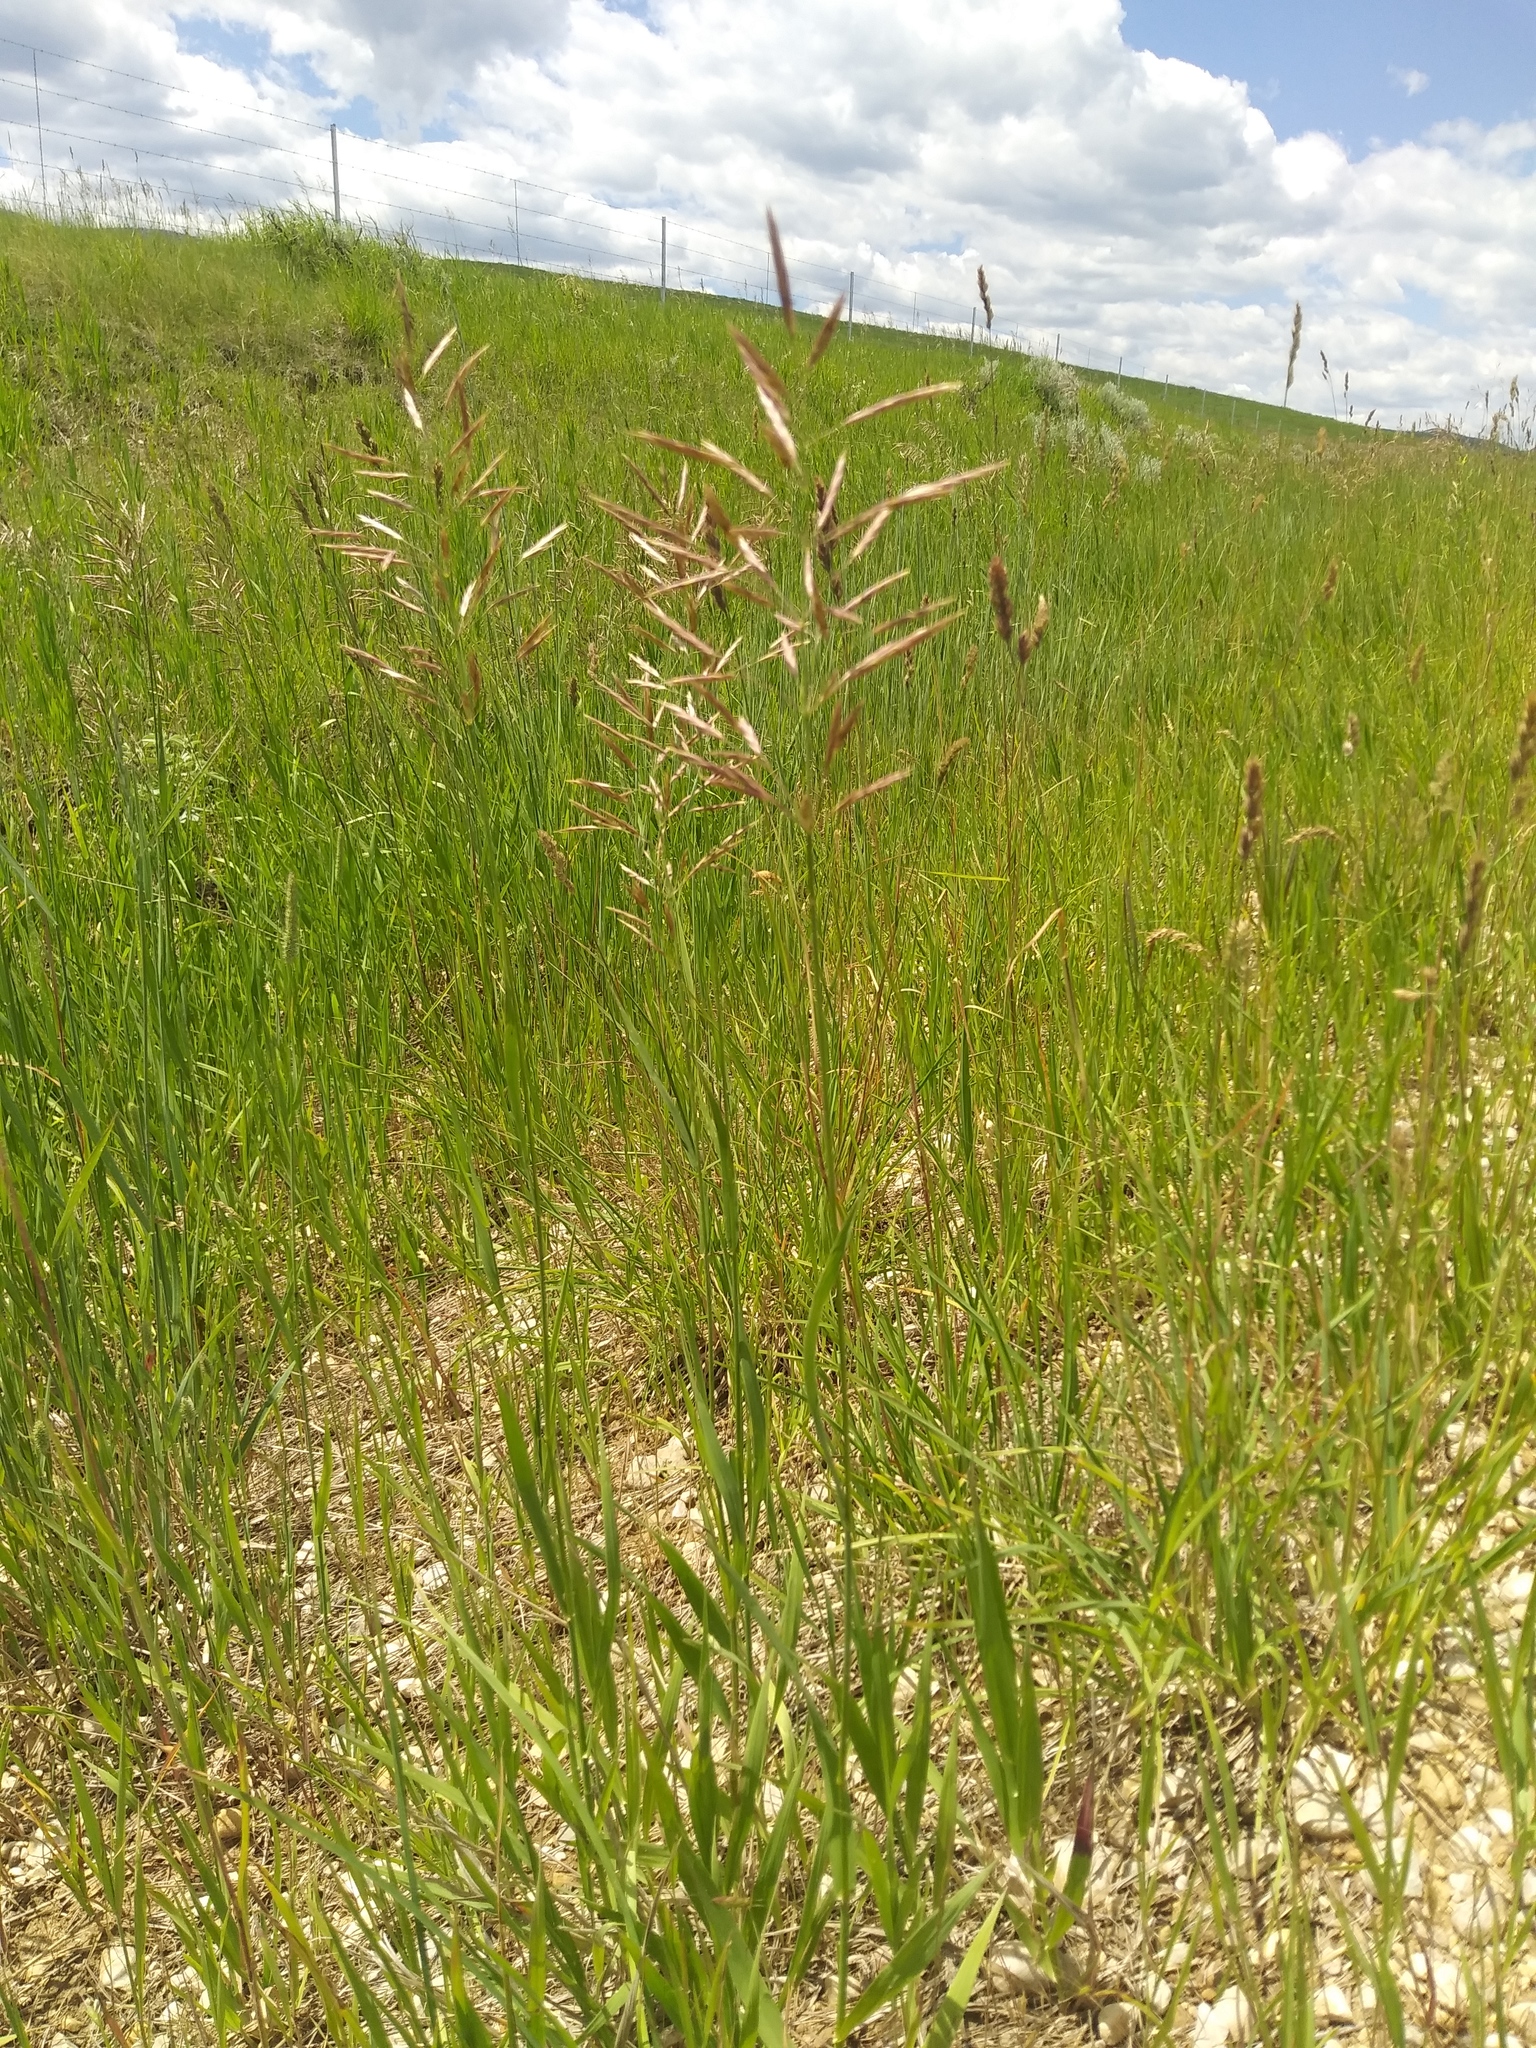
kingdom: Plantae
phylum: Tracheophyta
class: Liliopsida
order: Poales
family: Poaceae
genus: Bromus
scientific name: Bromus inermis
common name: Smooth brome
